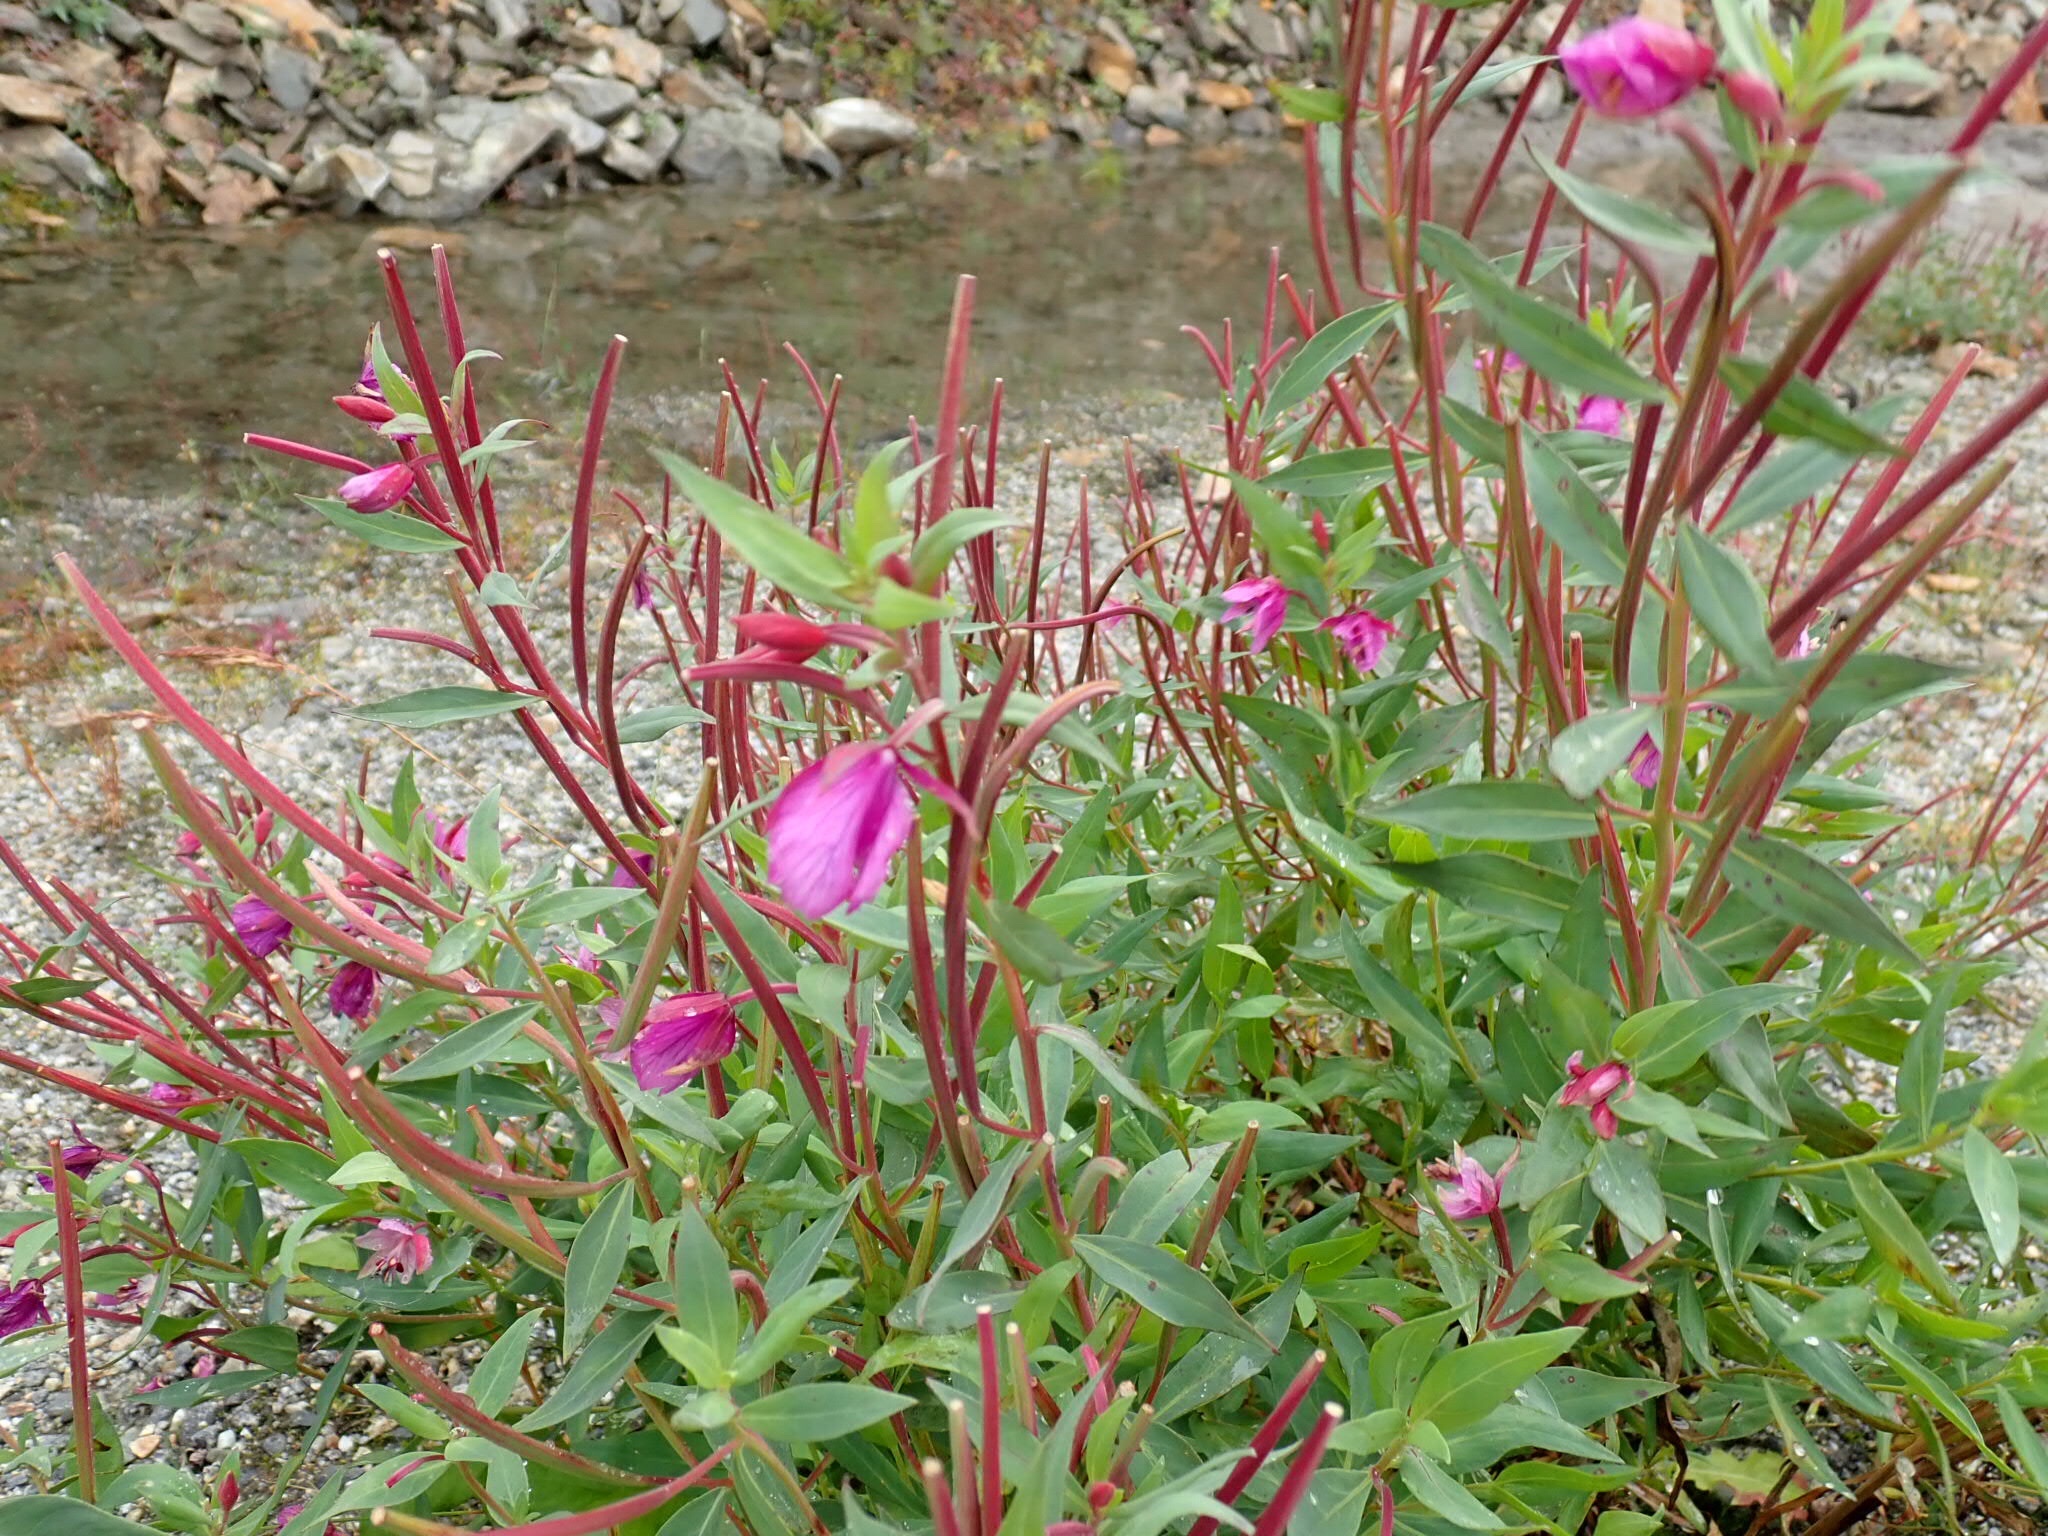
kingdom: Plantae
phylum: Tracheophyta
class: Magnoliopsida
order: Myrtales
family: Onagraceae
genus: Chamaenerion
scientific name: Chamaenerion latifolium
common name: Dwarf fireweed
